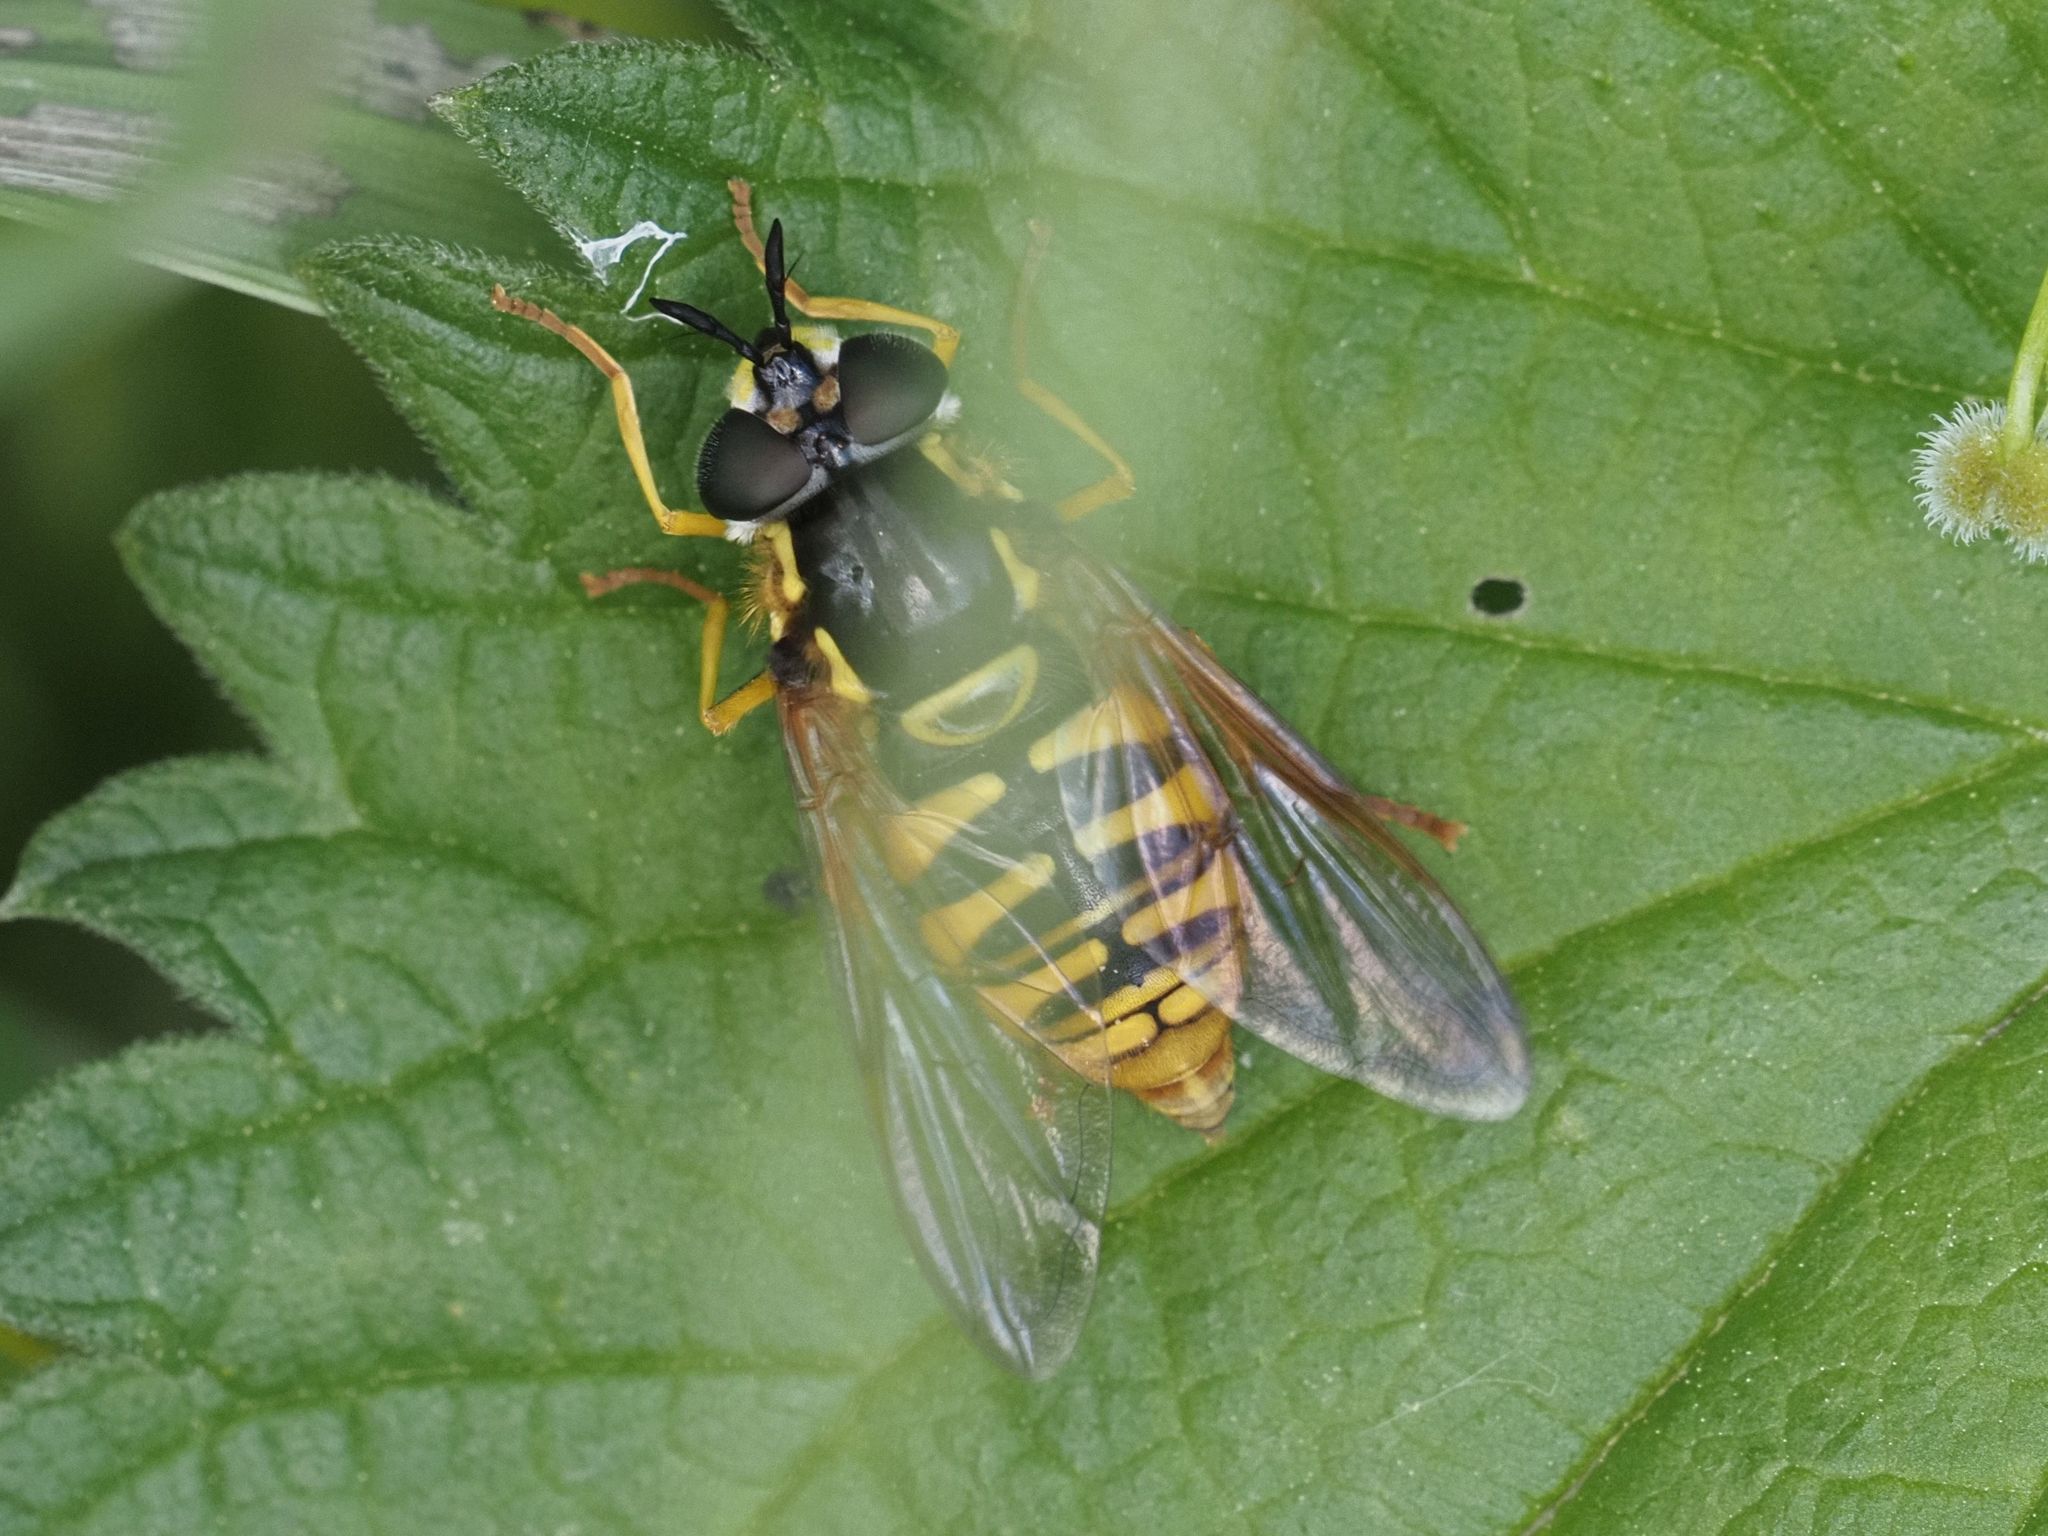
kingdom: Animalia
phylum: Arthropoda
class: Insecta
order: Diptera
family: Syrphidae
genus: Chrysotoxum
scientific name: Chrysotoxum cautum
